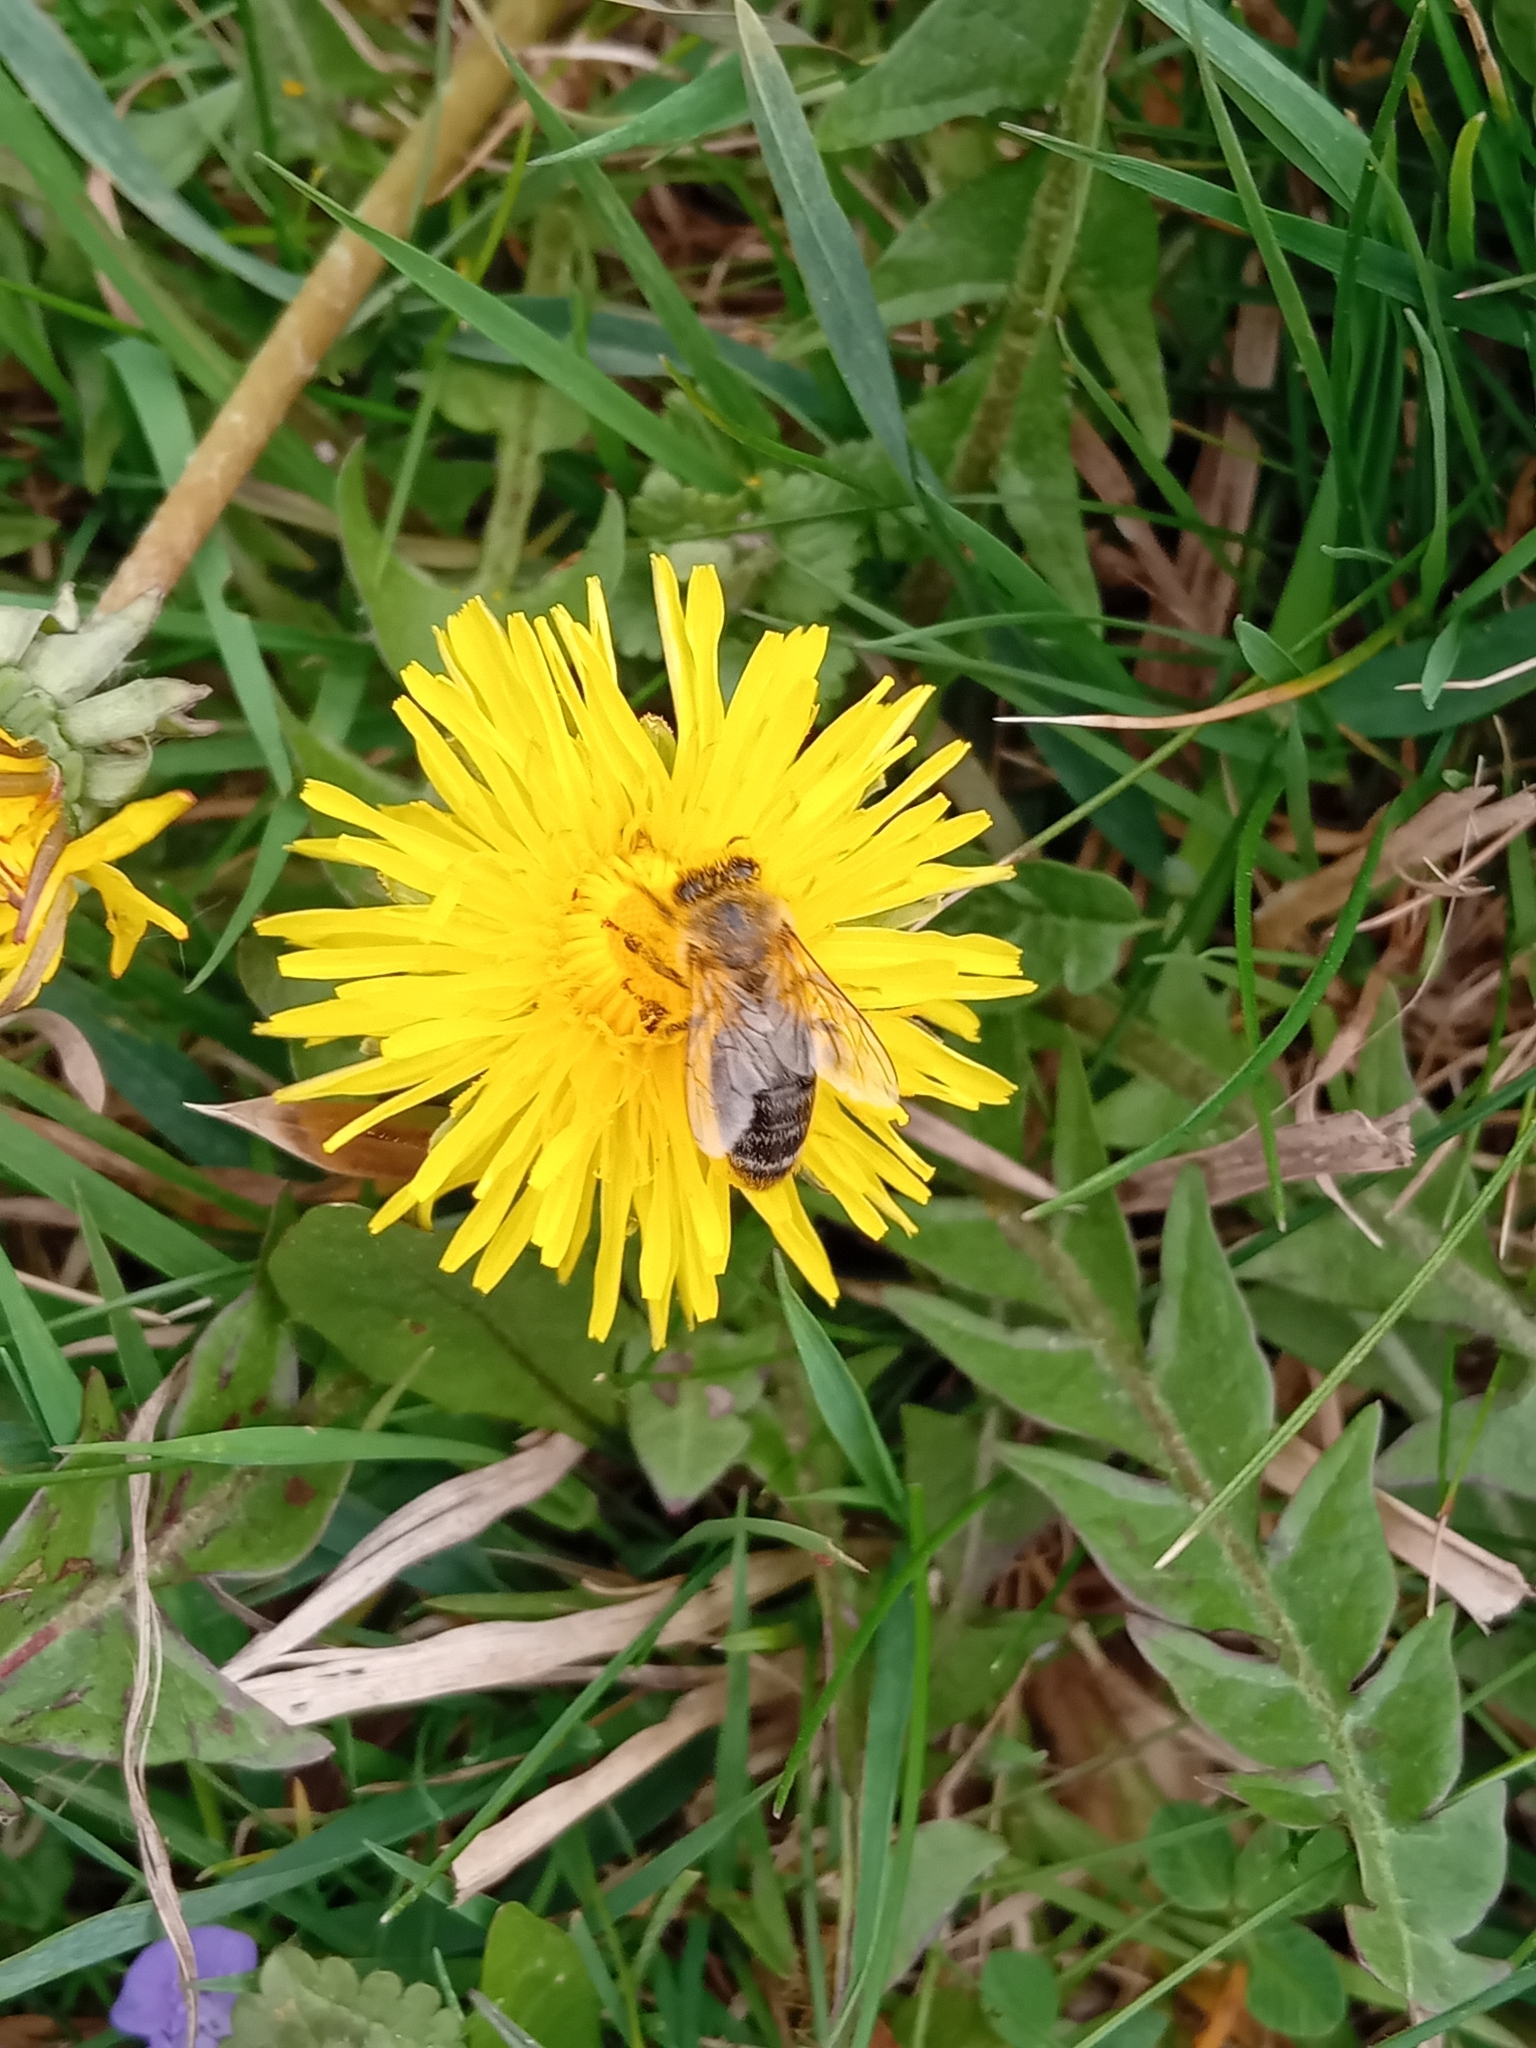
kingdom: Animalia
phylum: Arthropoda
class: Insecta
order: Hymenoptera
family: Apidae
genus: Apis
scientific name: Apis mellifera
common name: Honey bee
